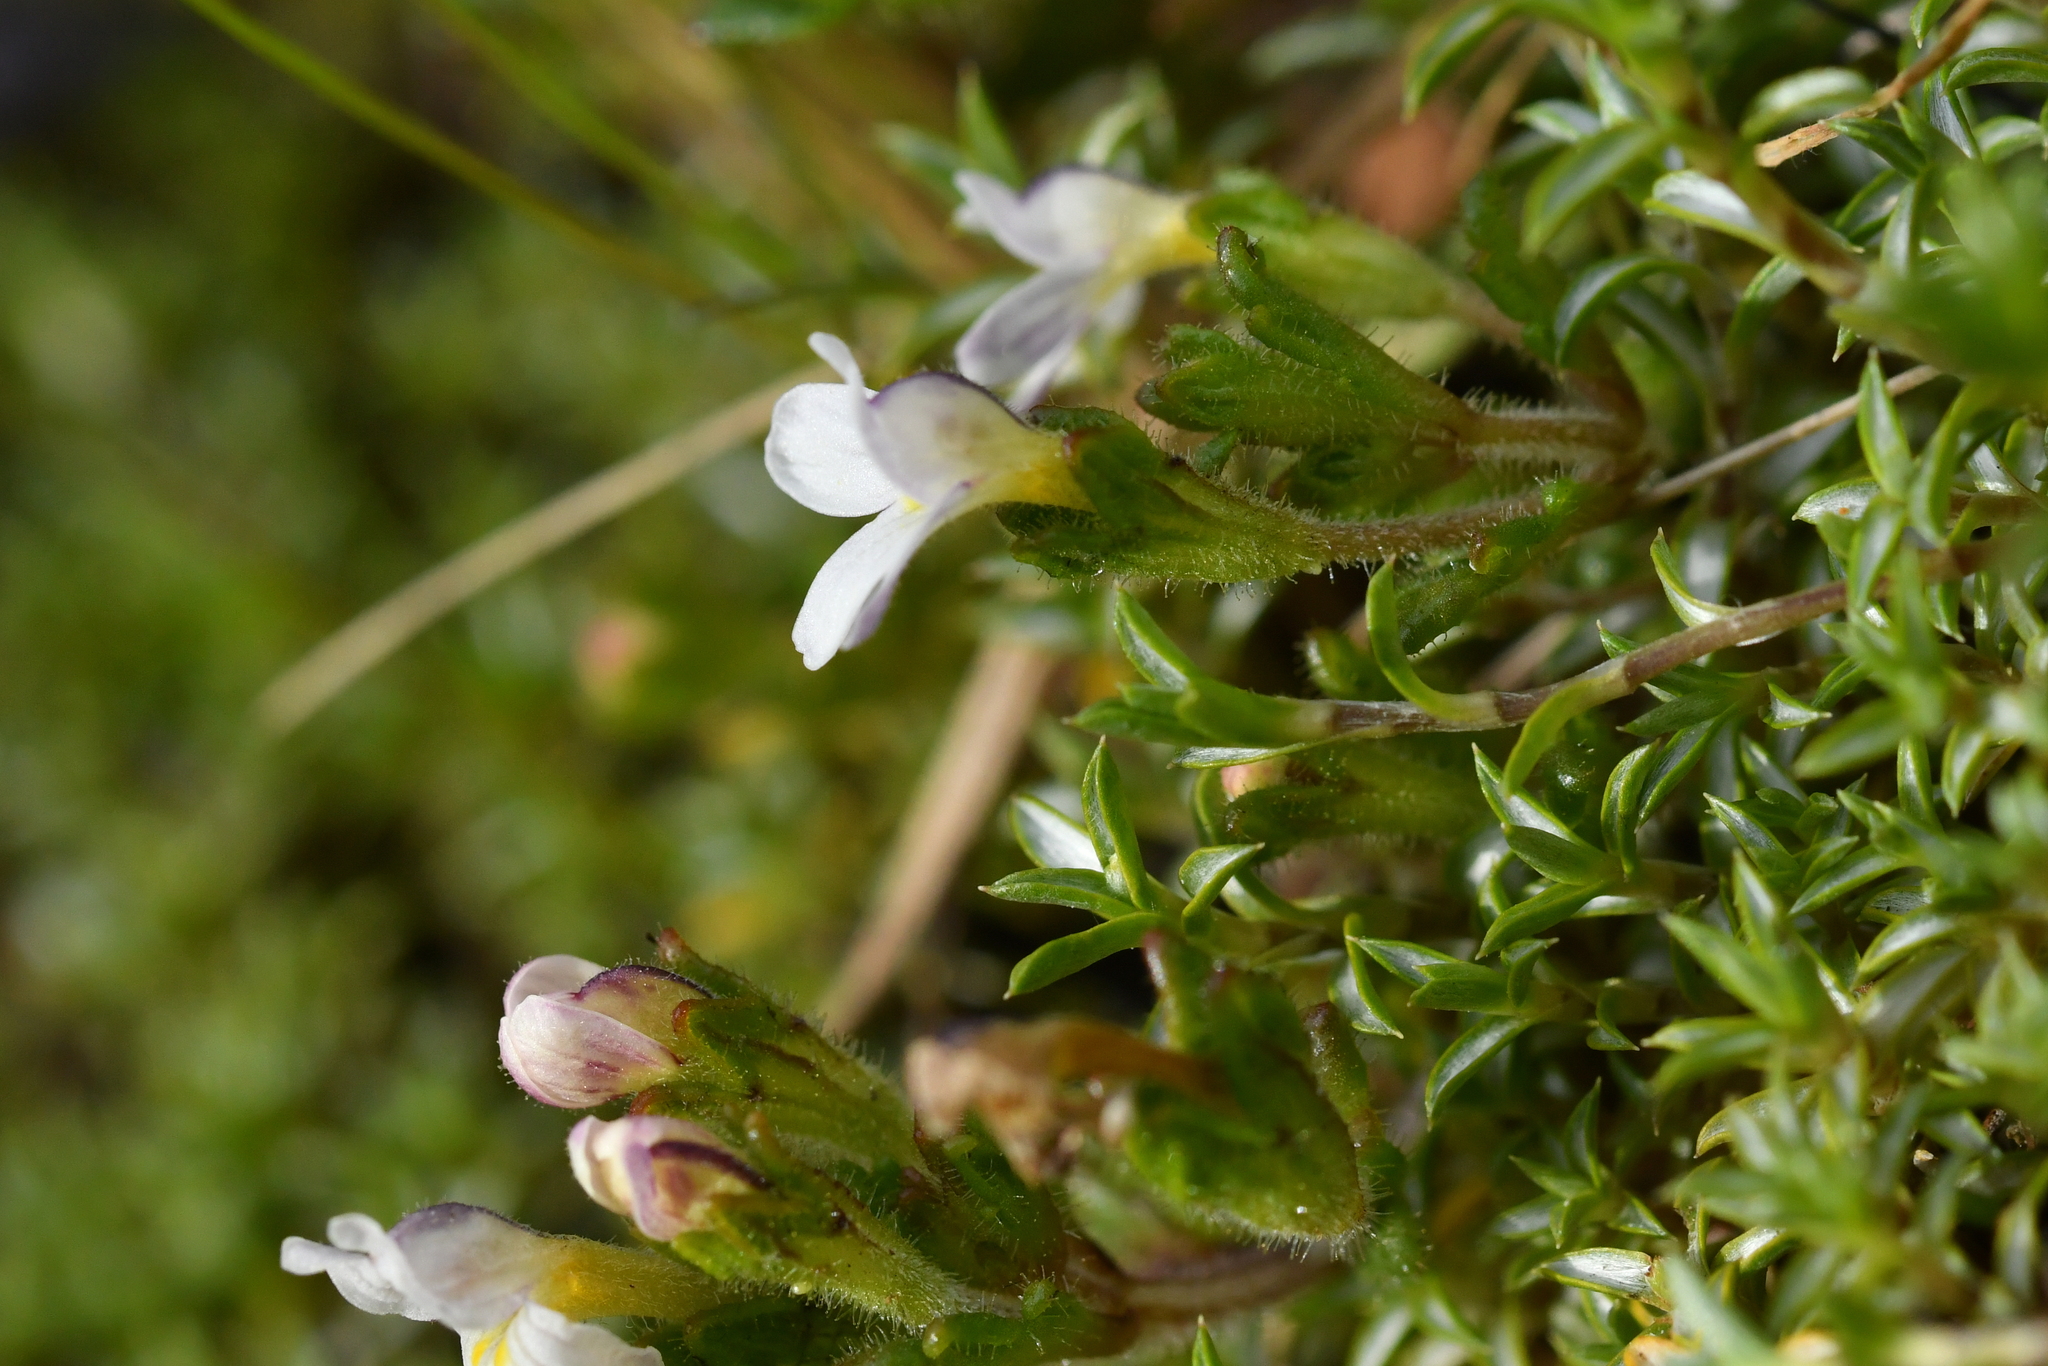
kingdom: Plantae
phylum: Tracheophyta
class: Magnoliopsida
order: Lamiales
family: Orobanchaceae
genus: Euphrasia
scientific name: Euphrasia australis
